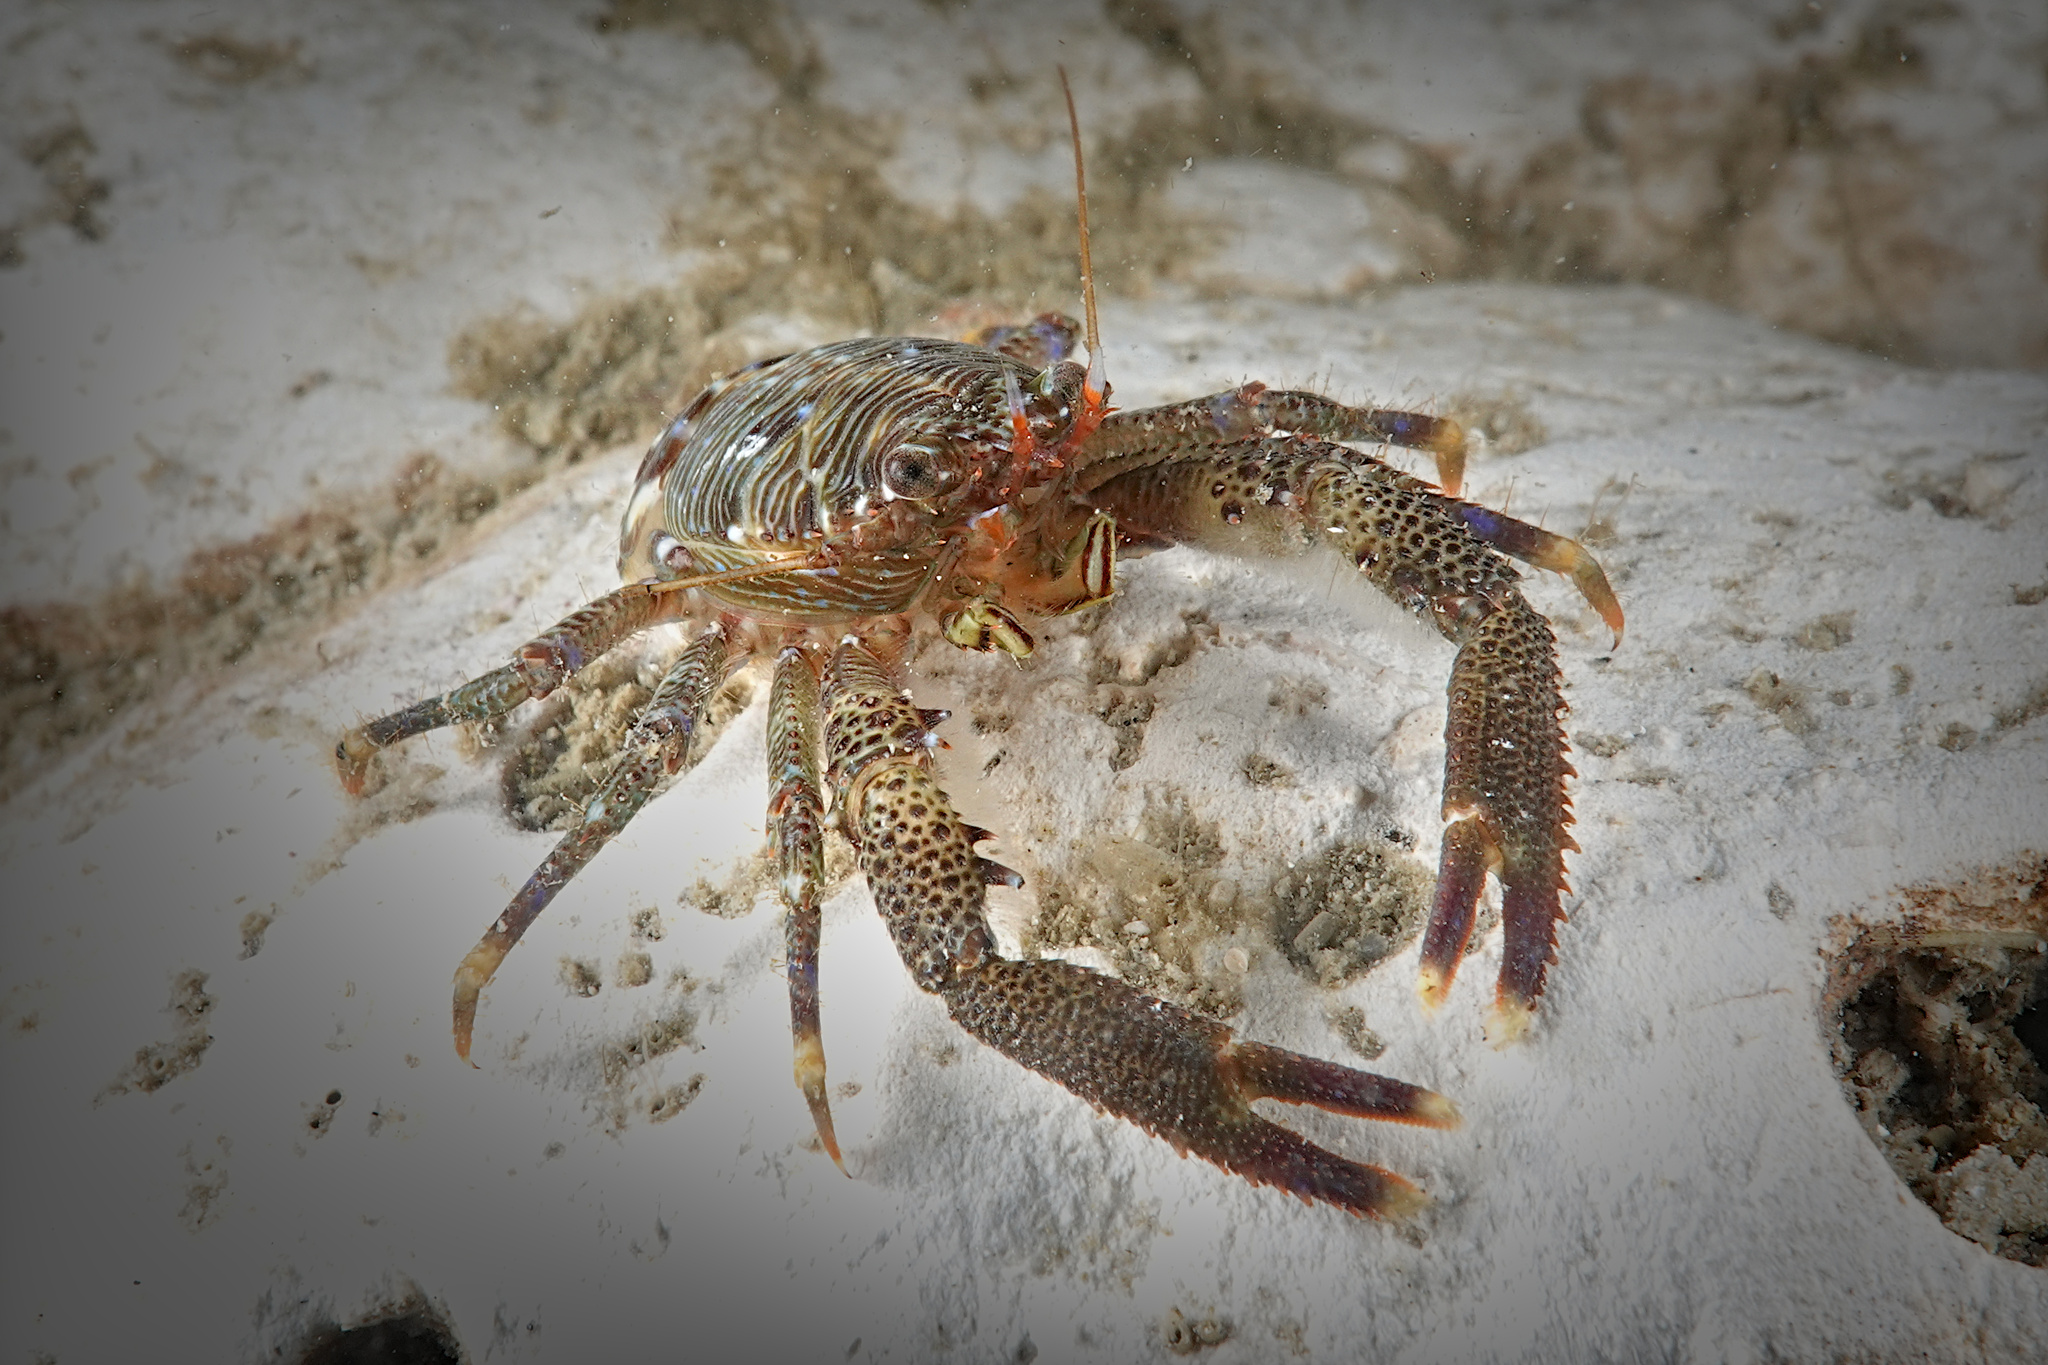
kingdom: Animalia
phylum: Arthropoda
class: Malacostraca
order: Decapoda
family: Galatheidae
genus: Galathea
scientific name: Galathea squamifera
